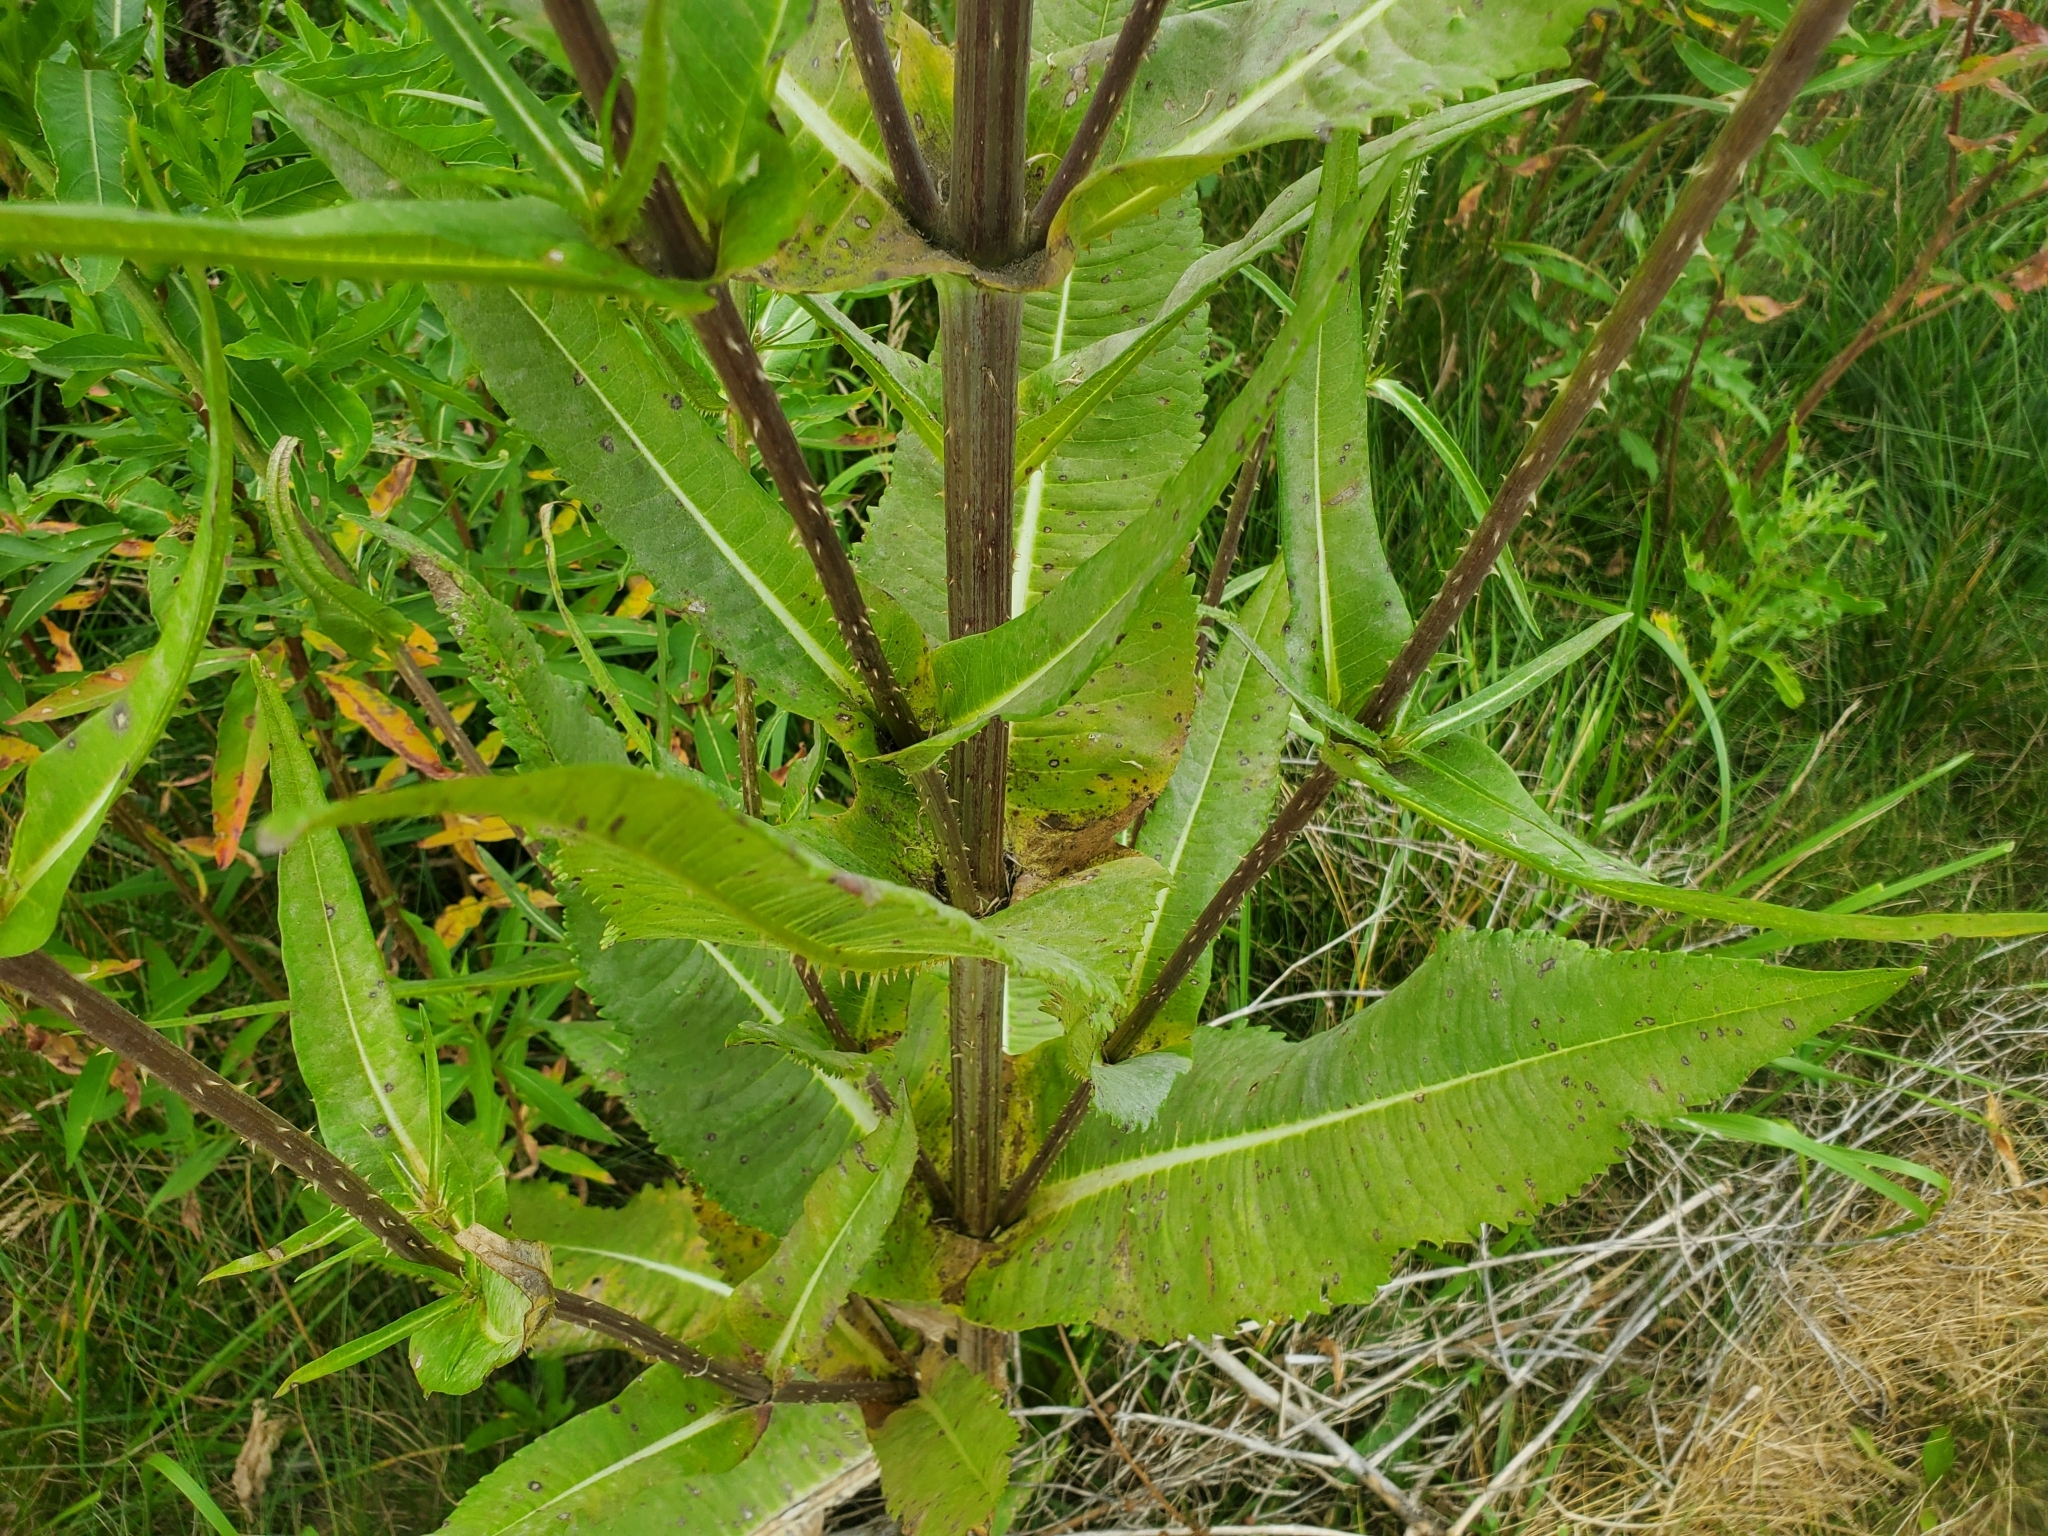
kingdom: Plantae
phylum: Tracheophyta
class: Magnoliopsida
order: Dipsacales
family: Caprifoliaceae
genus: Dipsacus
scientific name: Dipsacus fullonum
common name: Teasel
